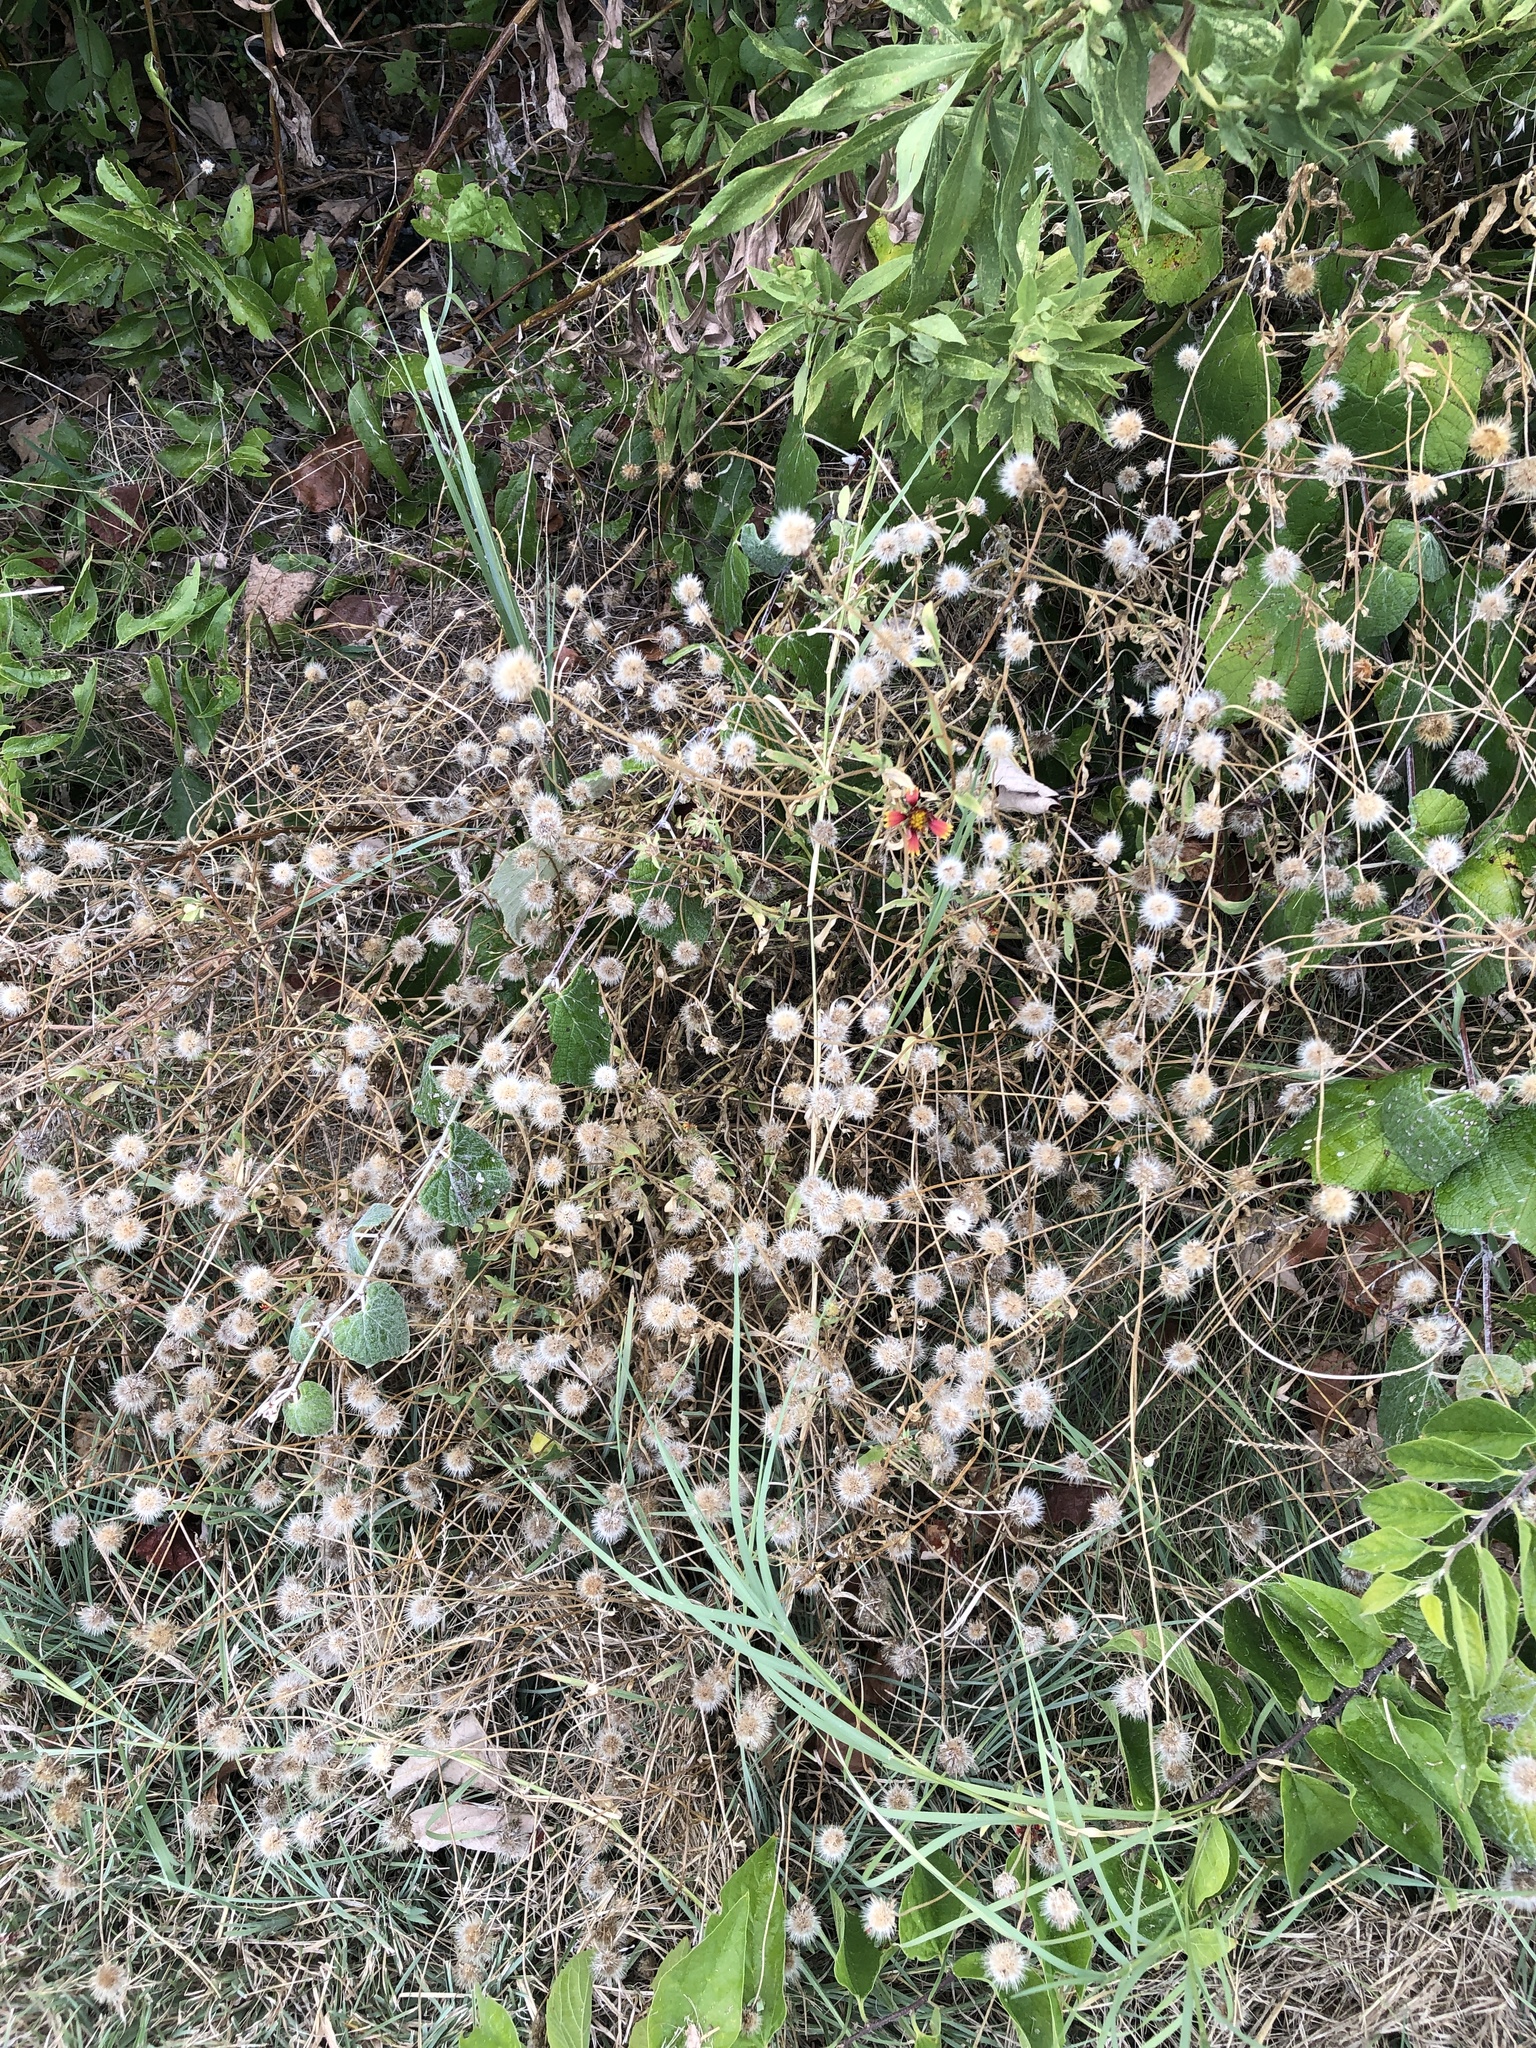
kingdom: Plantae
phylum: Tracheophyta
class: Magnoliopsida
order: Asterales
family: Asteraceae
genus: Gaillardia
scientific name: Gaillardia pulchella
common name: Firewheel
